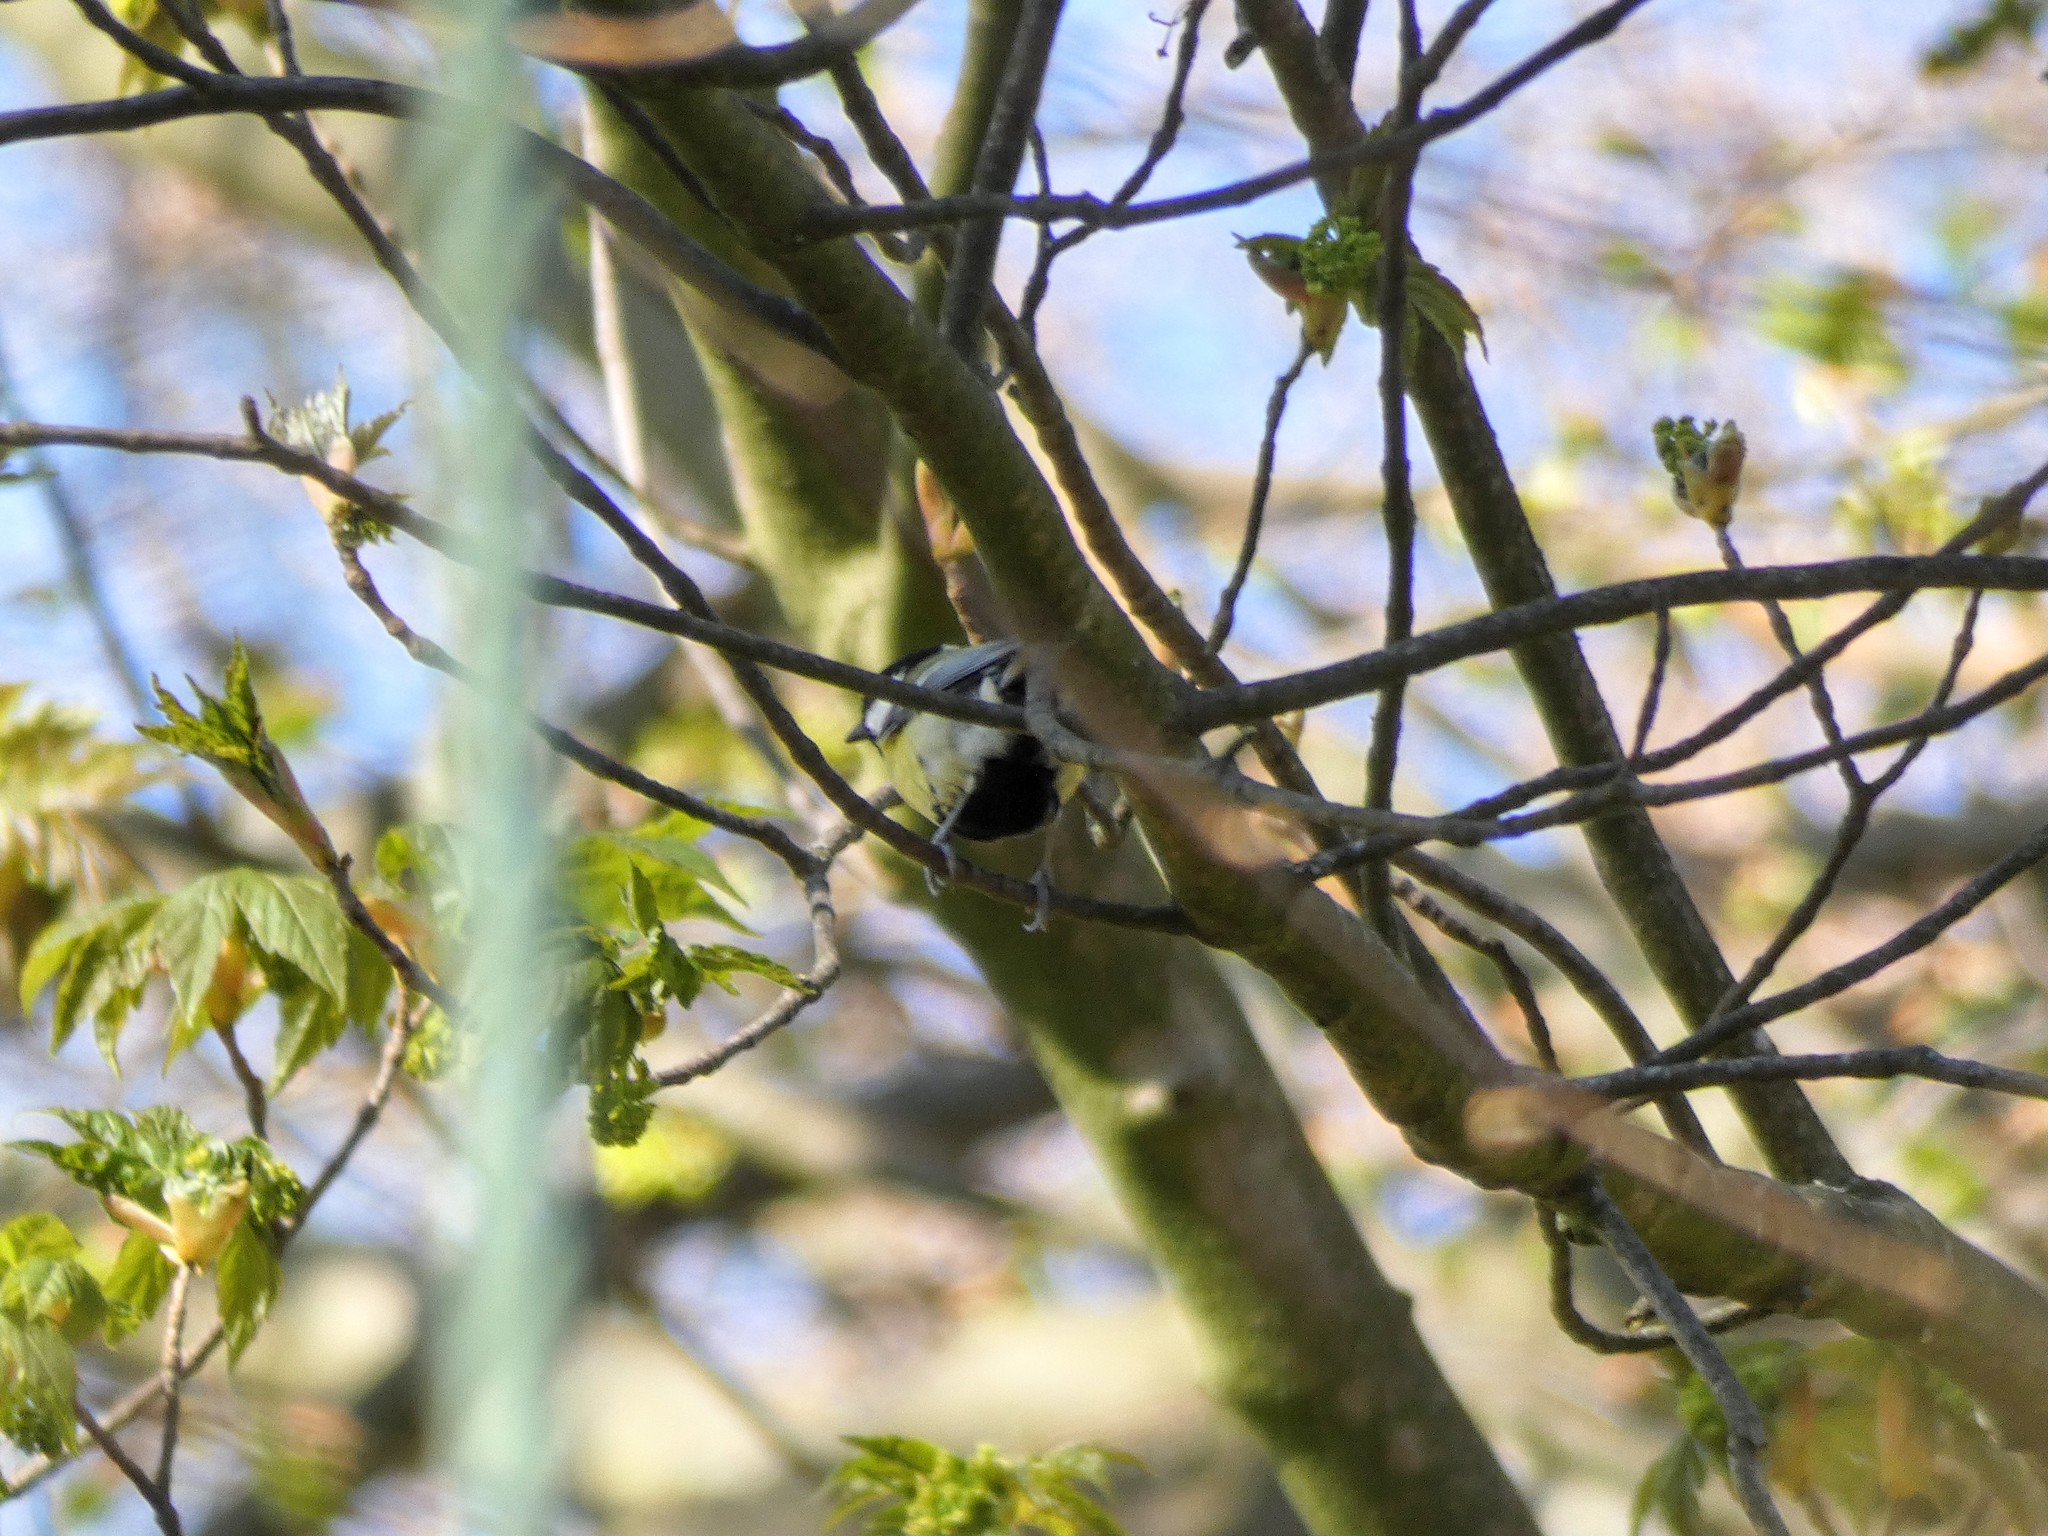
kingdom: Animalia
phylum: Chordata
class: Aves
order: Passeriformes
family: Paridae
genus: Parus
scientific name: Parus major
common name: Great tit
